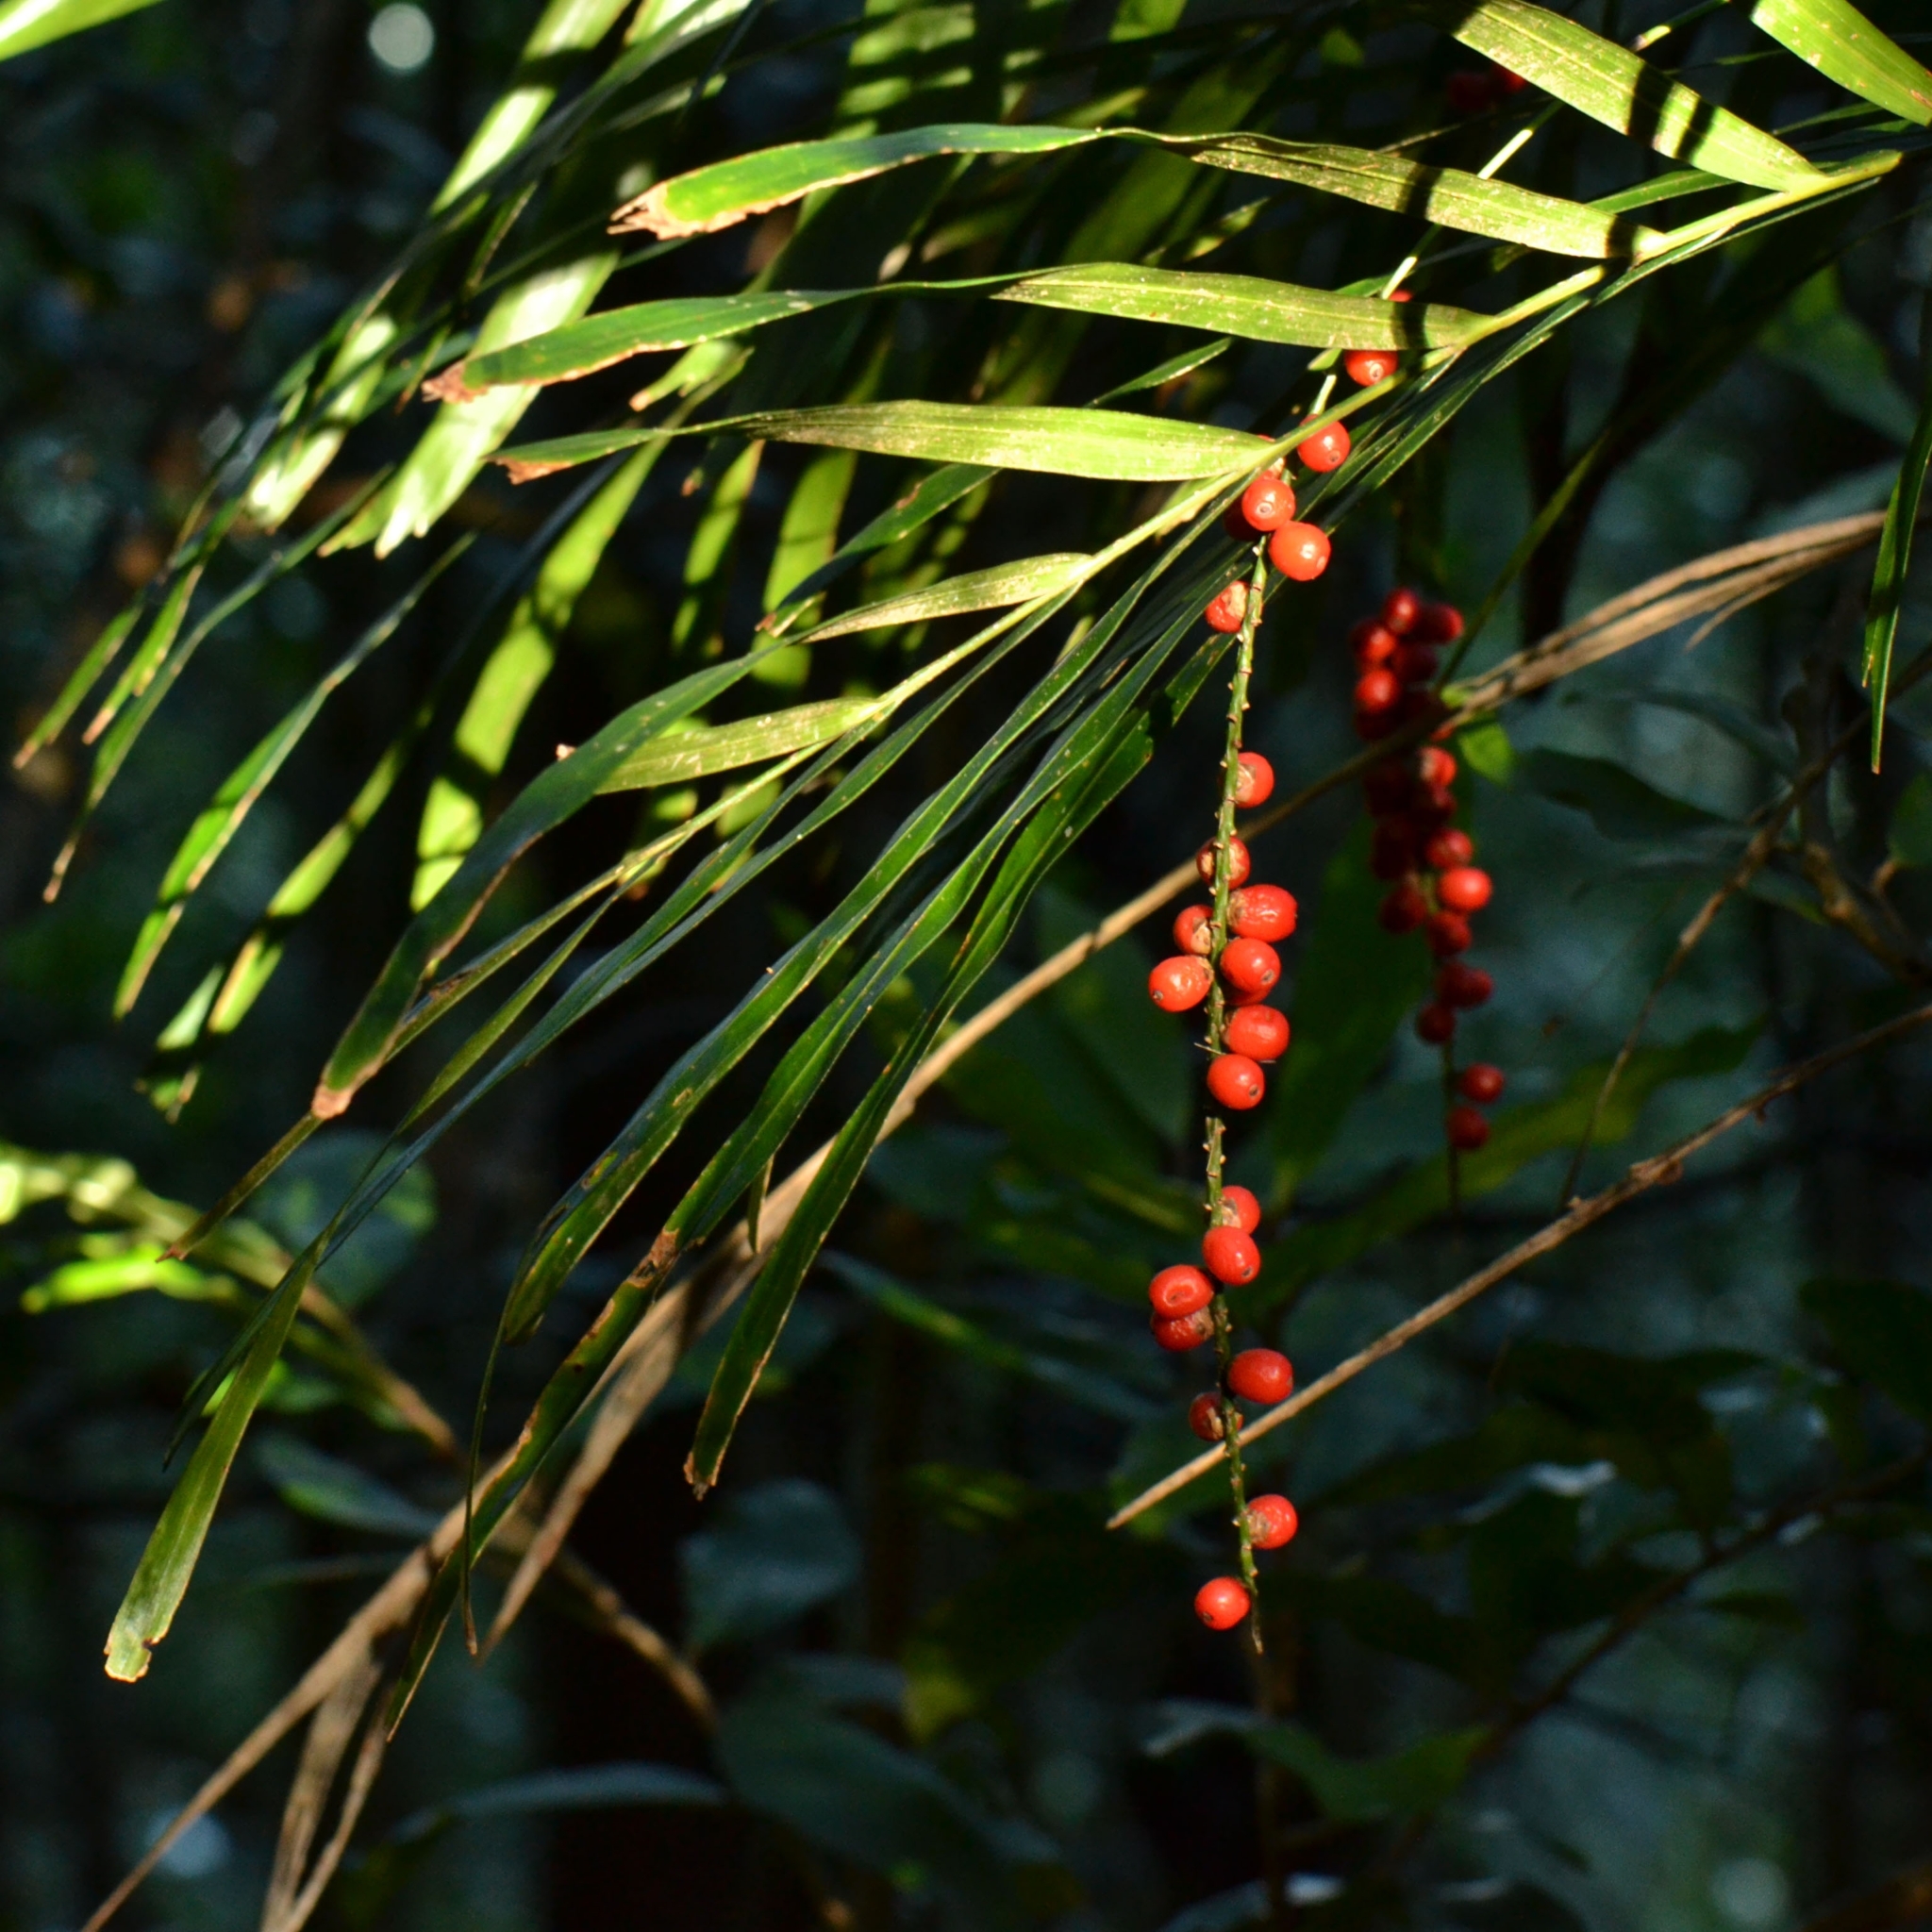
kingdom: Plantae
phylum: Tracheophyta
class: Liliopsida
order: Arecales
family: Arecaceae
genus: Linospadix
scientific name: Linospadix monostachyus
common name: Walking-stick palm
